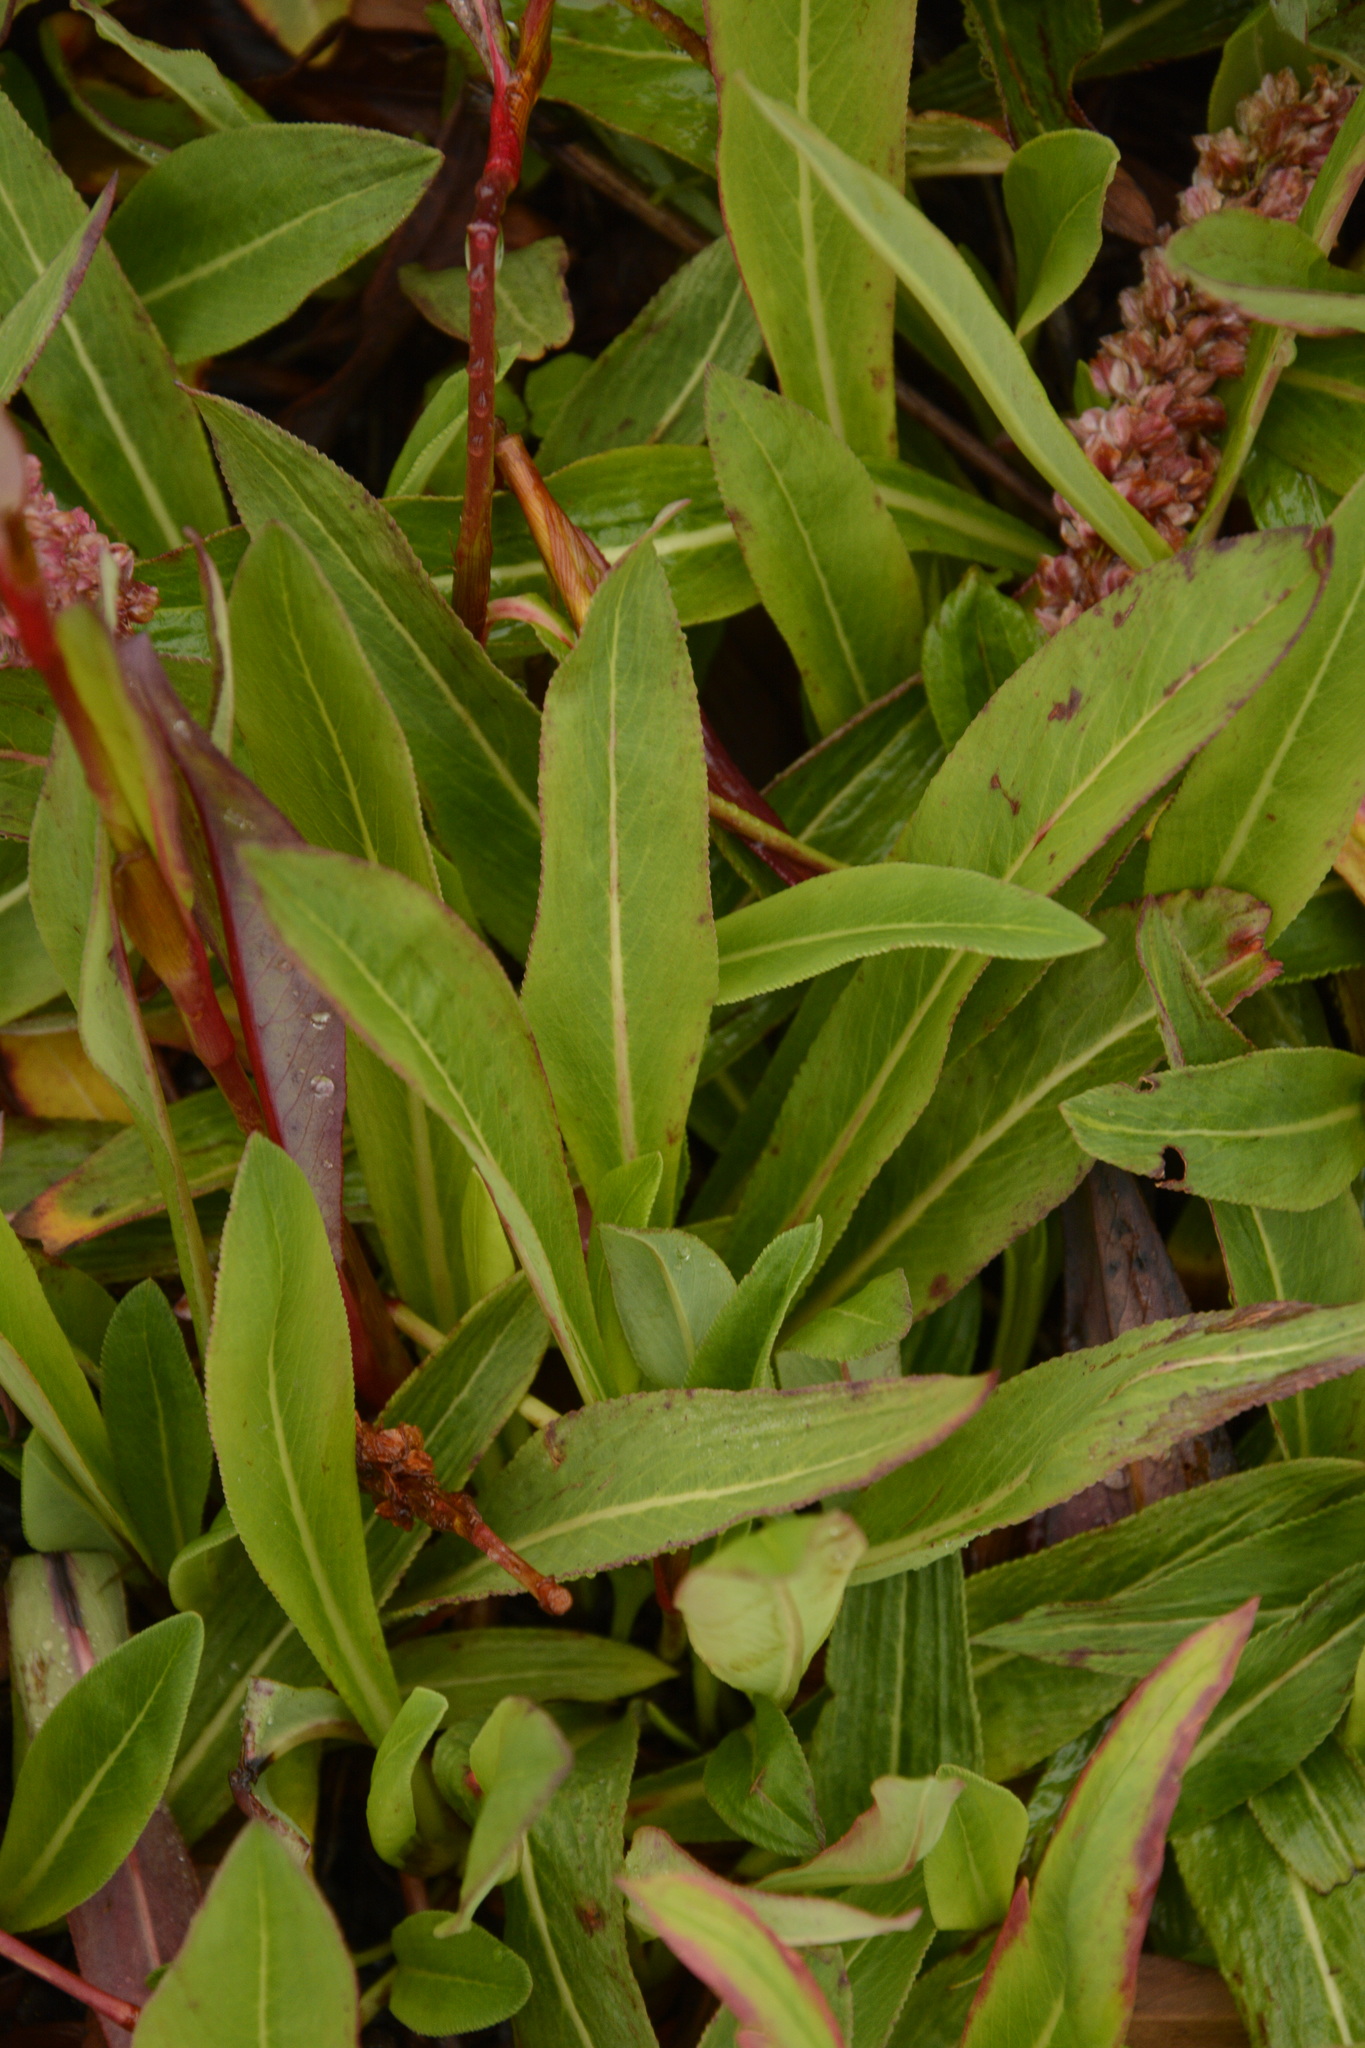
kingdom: Plantae
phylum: Tracheophyta
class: Magnoliopsida
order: Caryophyllales
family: Polygonaceae
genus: Bistorta
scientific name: Bistorta affinis
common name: Himalayan fleeceflower
